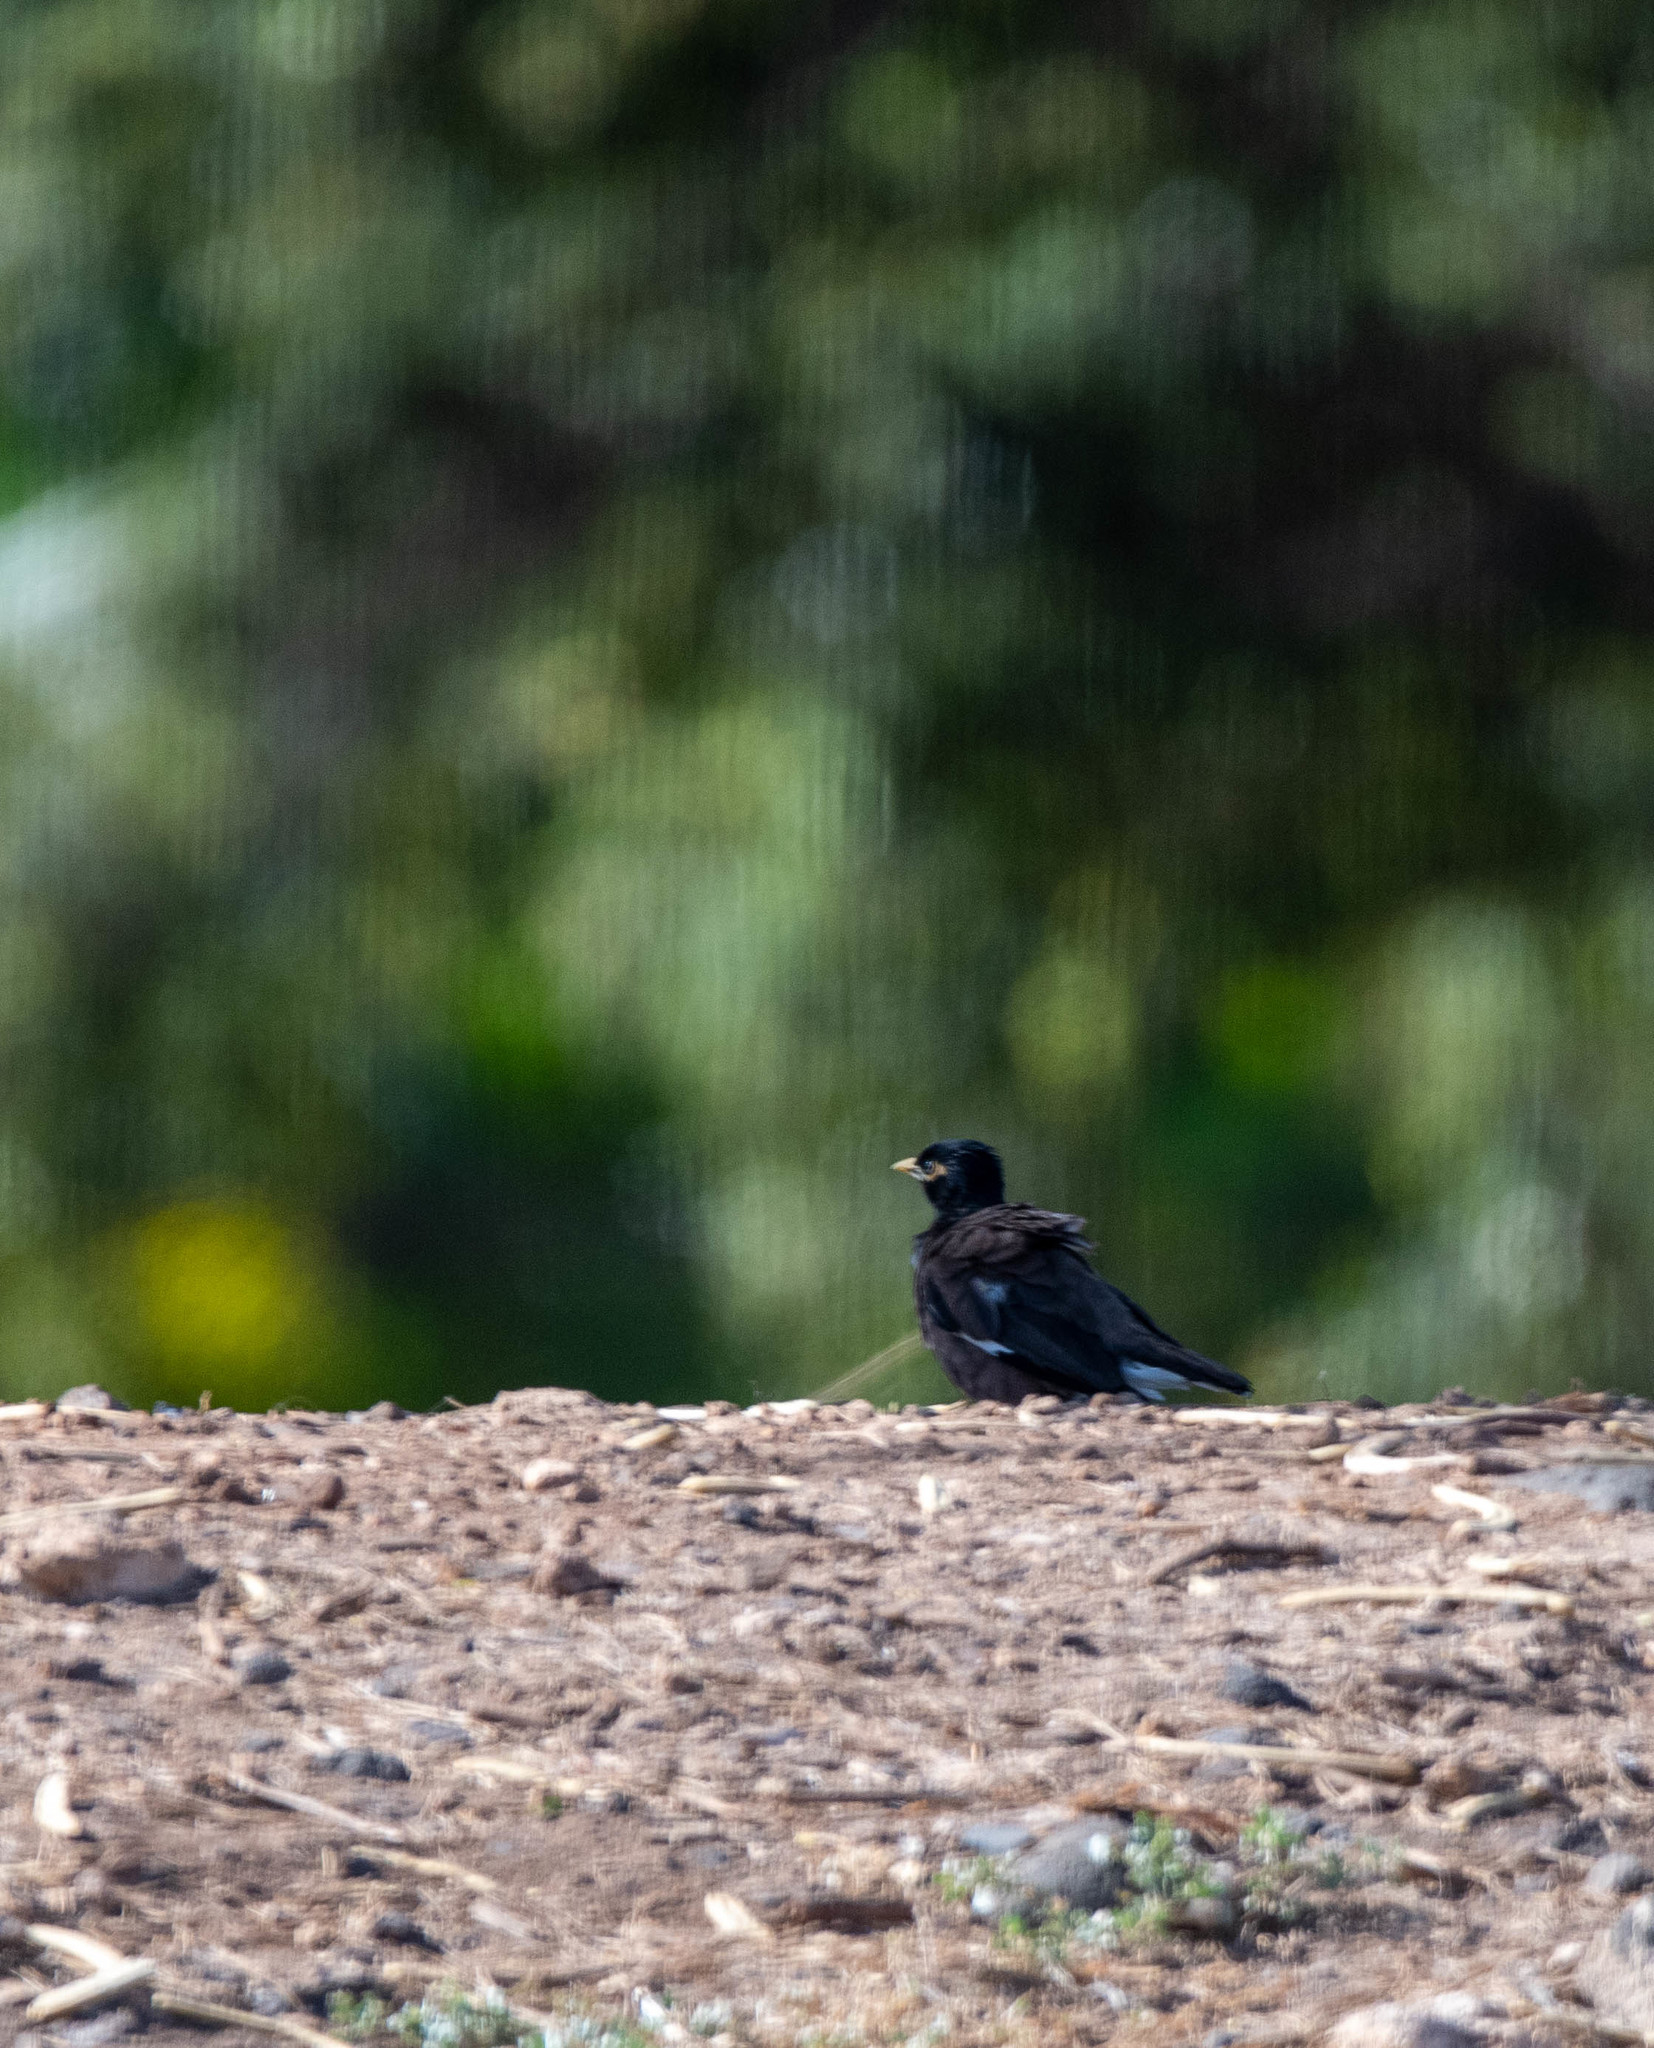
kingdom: Animalia
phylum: Chordata
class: Aves
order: Passeriformes
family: Sturnidae
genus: Acridotheres
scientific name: Acridotheres tristis
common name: Common myna
